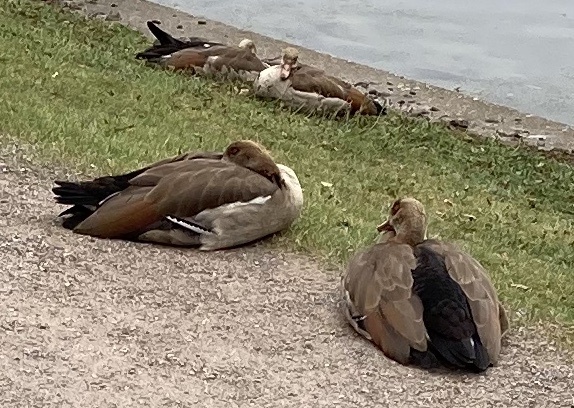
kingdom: Animalia
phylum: Chordata
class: Aves
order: Anseriformes
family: Anatidae
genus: Alopochen
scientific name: Alopochen aegyptiaca
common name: Egyptian goose
